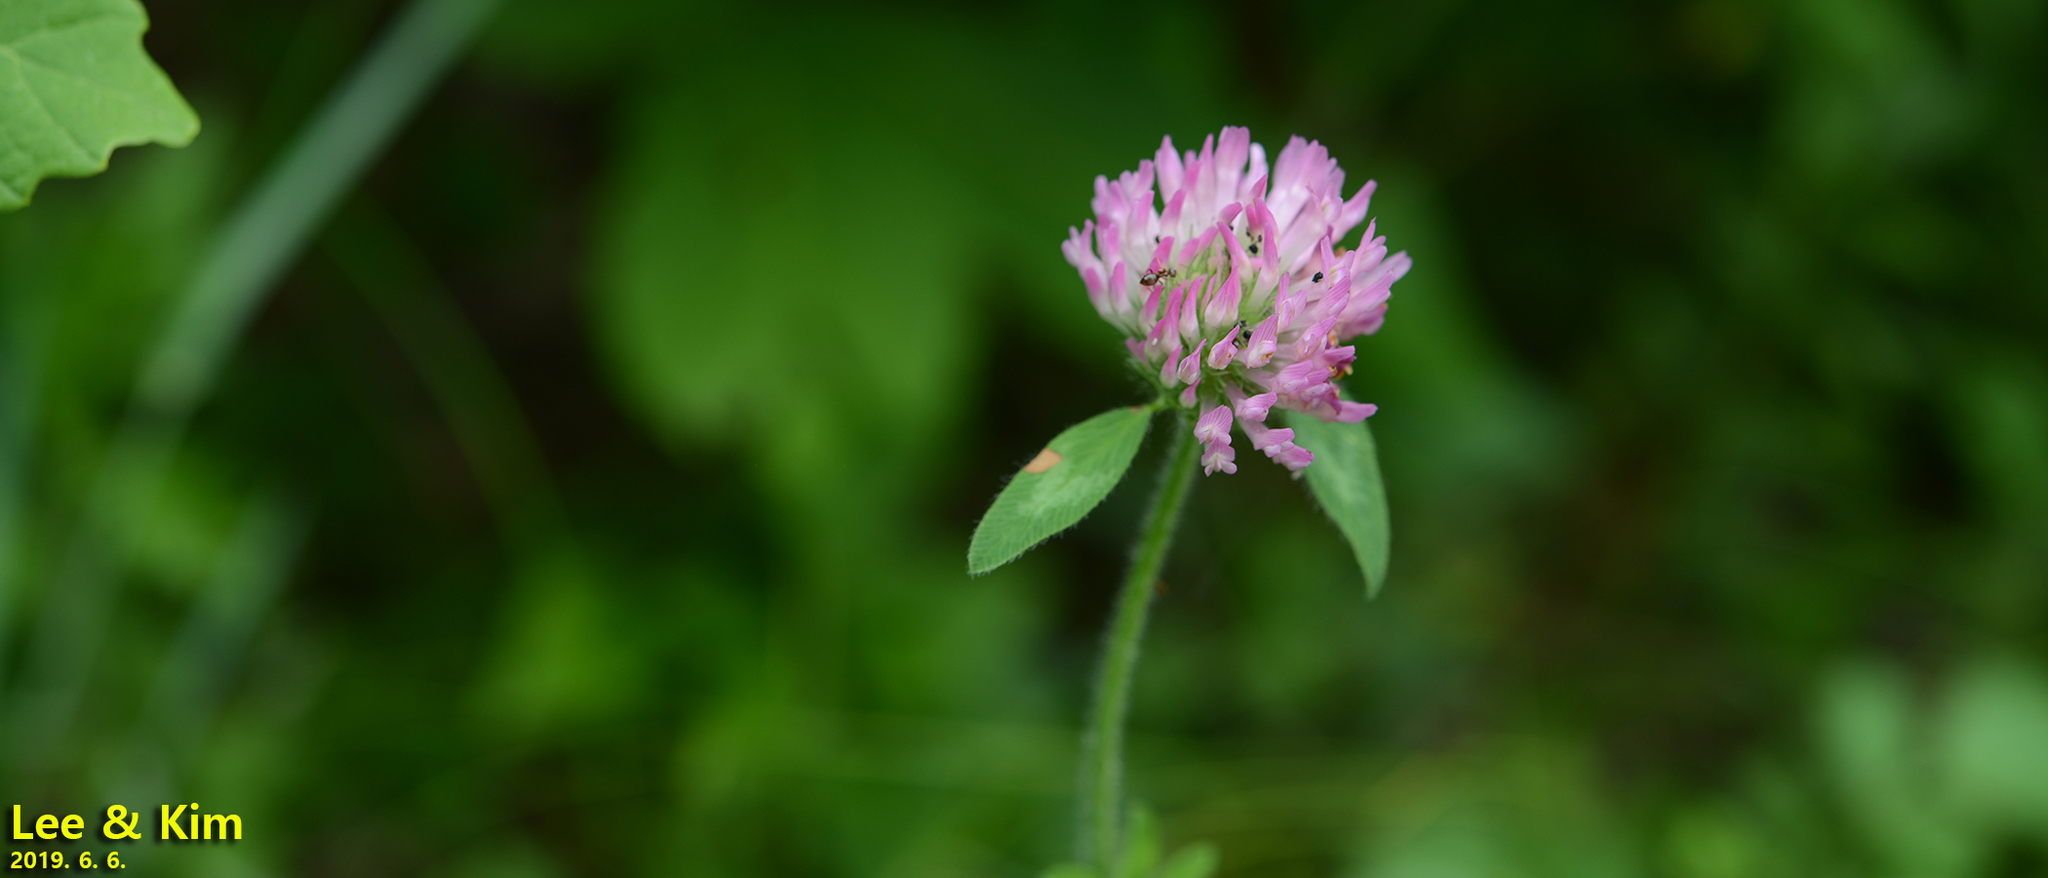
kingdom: Plantae
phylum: Tracheophyta
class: Magnoliopsida
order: Fabales
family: Fabaceae
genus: Trifolium
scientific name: Trifolium pratense
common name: Red clover
